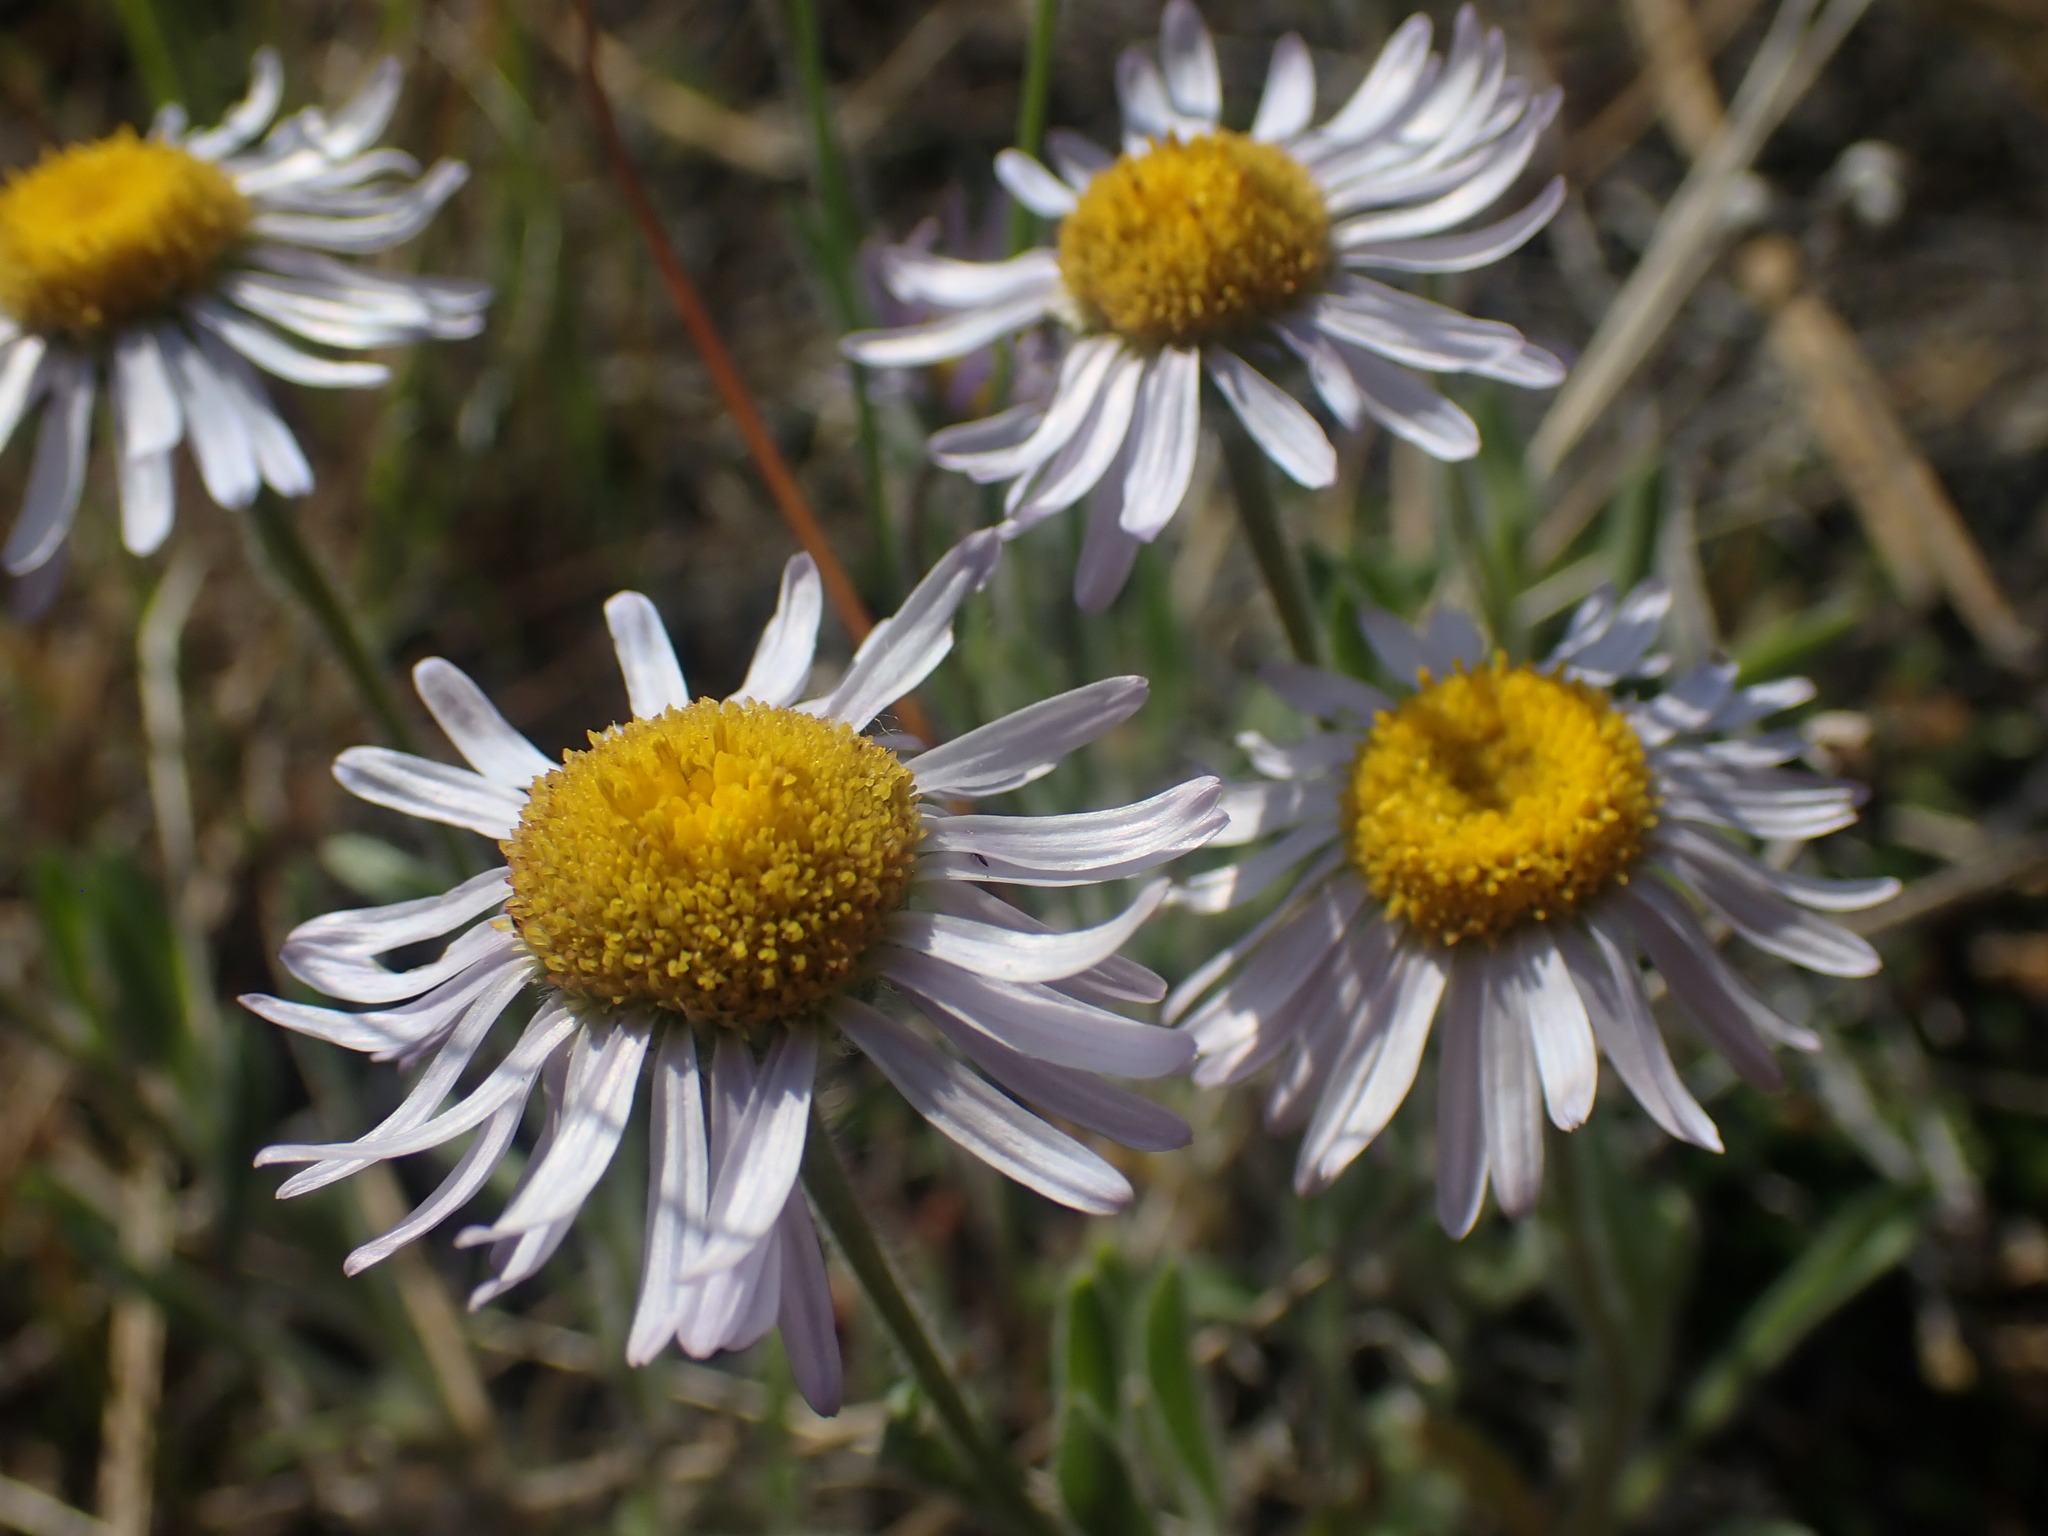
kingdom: Plantae
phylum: Tracheophyta
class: Magnoliopsida
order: Asterales
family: Asteraceae
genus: Erigeron
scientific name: Erigeron poliospermus
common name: Cushion fleabane
